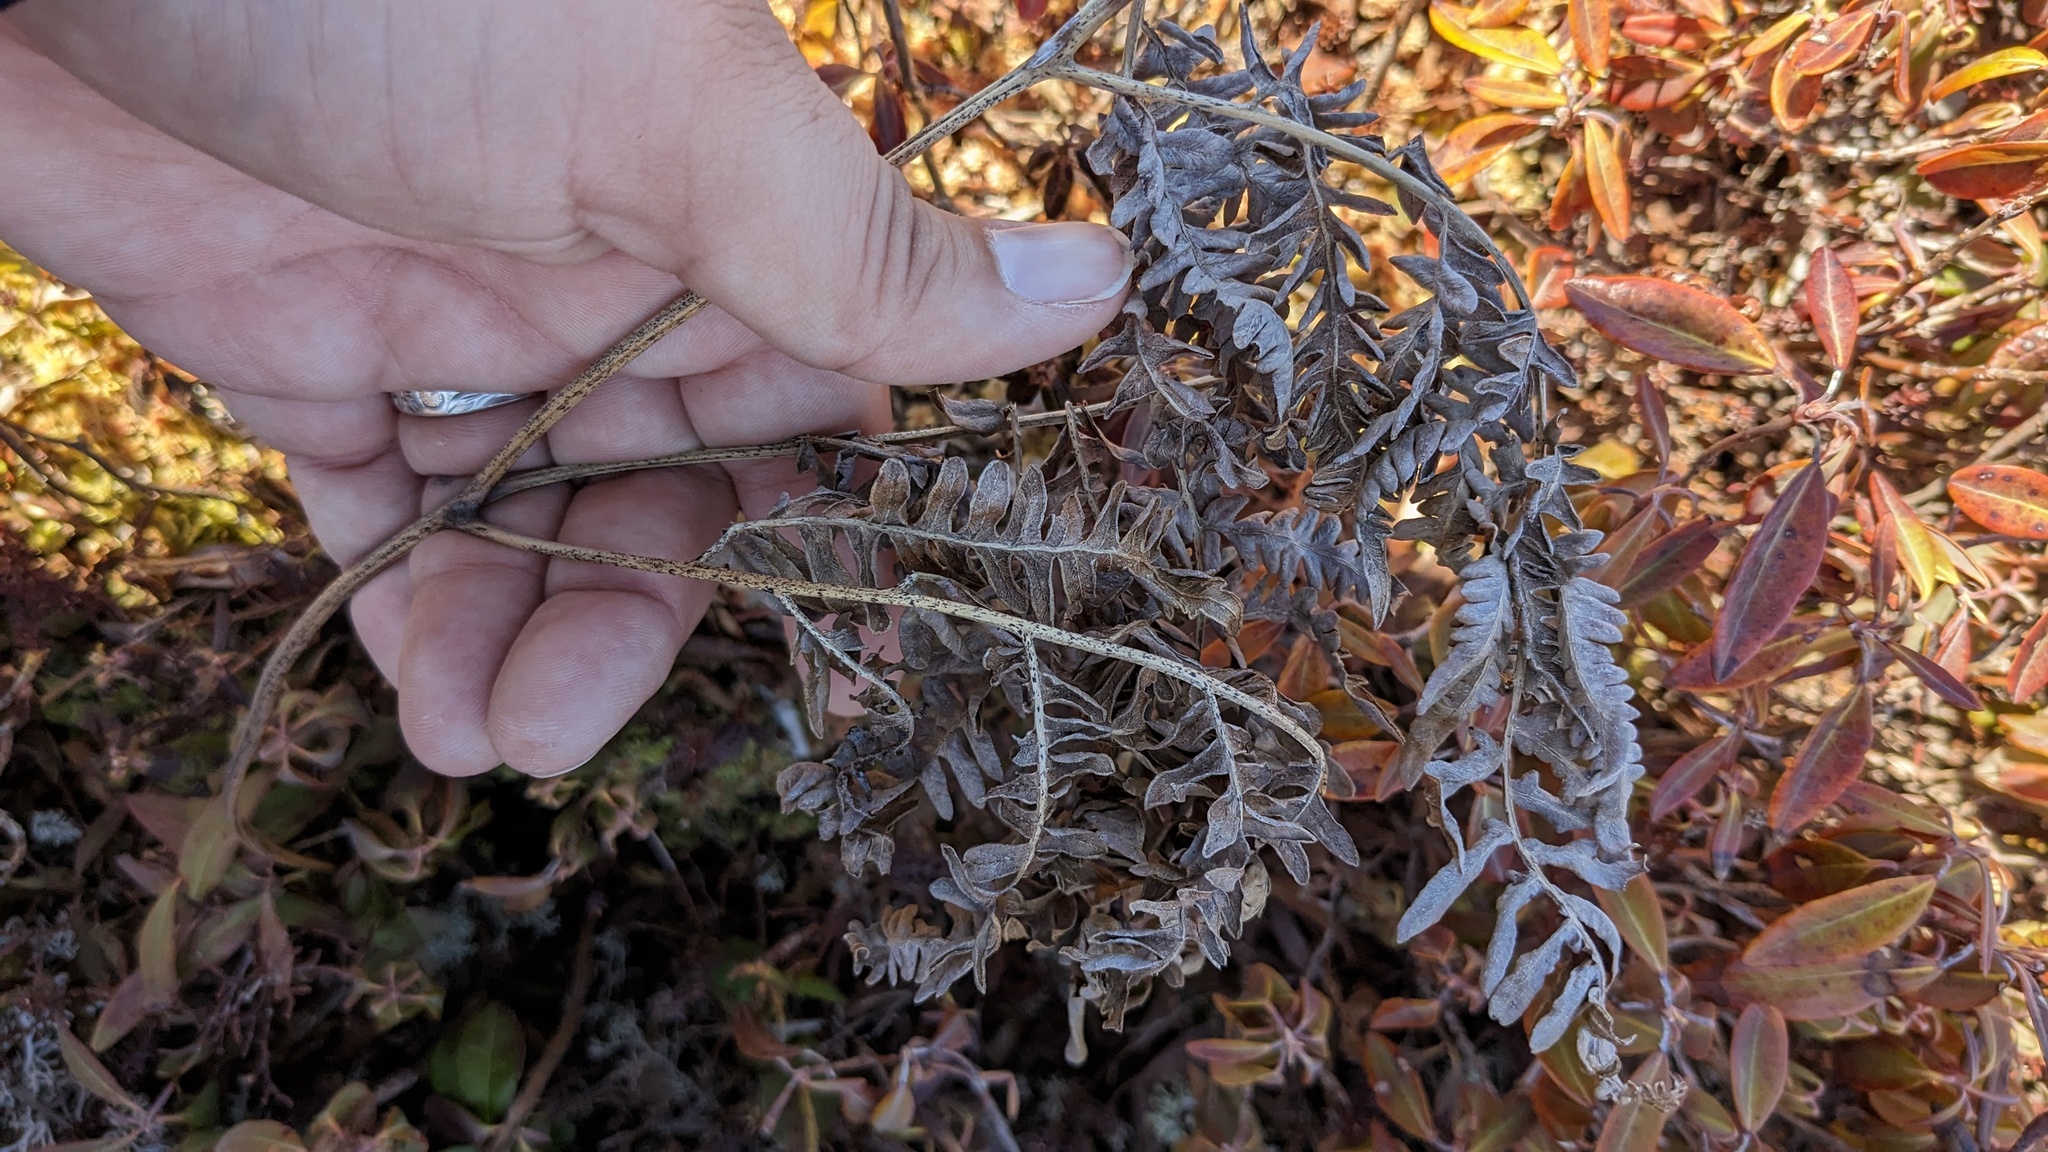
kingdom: Plantae
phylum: Tracheophyta
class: Polypodiopsida
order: Polypodiales
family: Dennstaedtiaceae
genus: Pteridium
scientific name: Pteridium aquilinum
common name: Bracken
